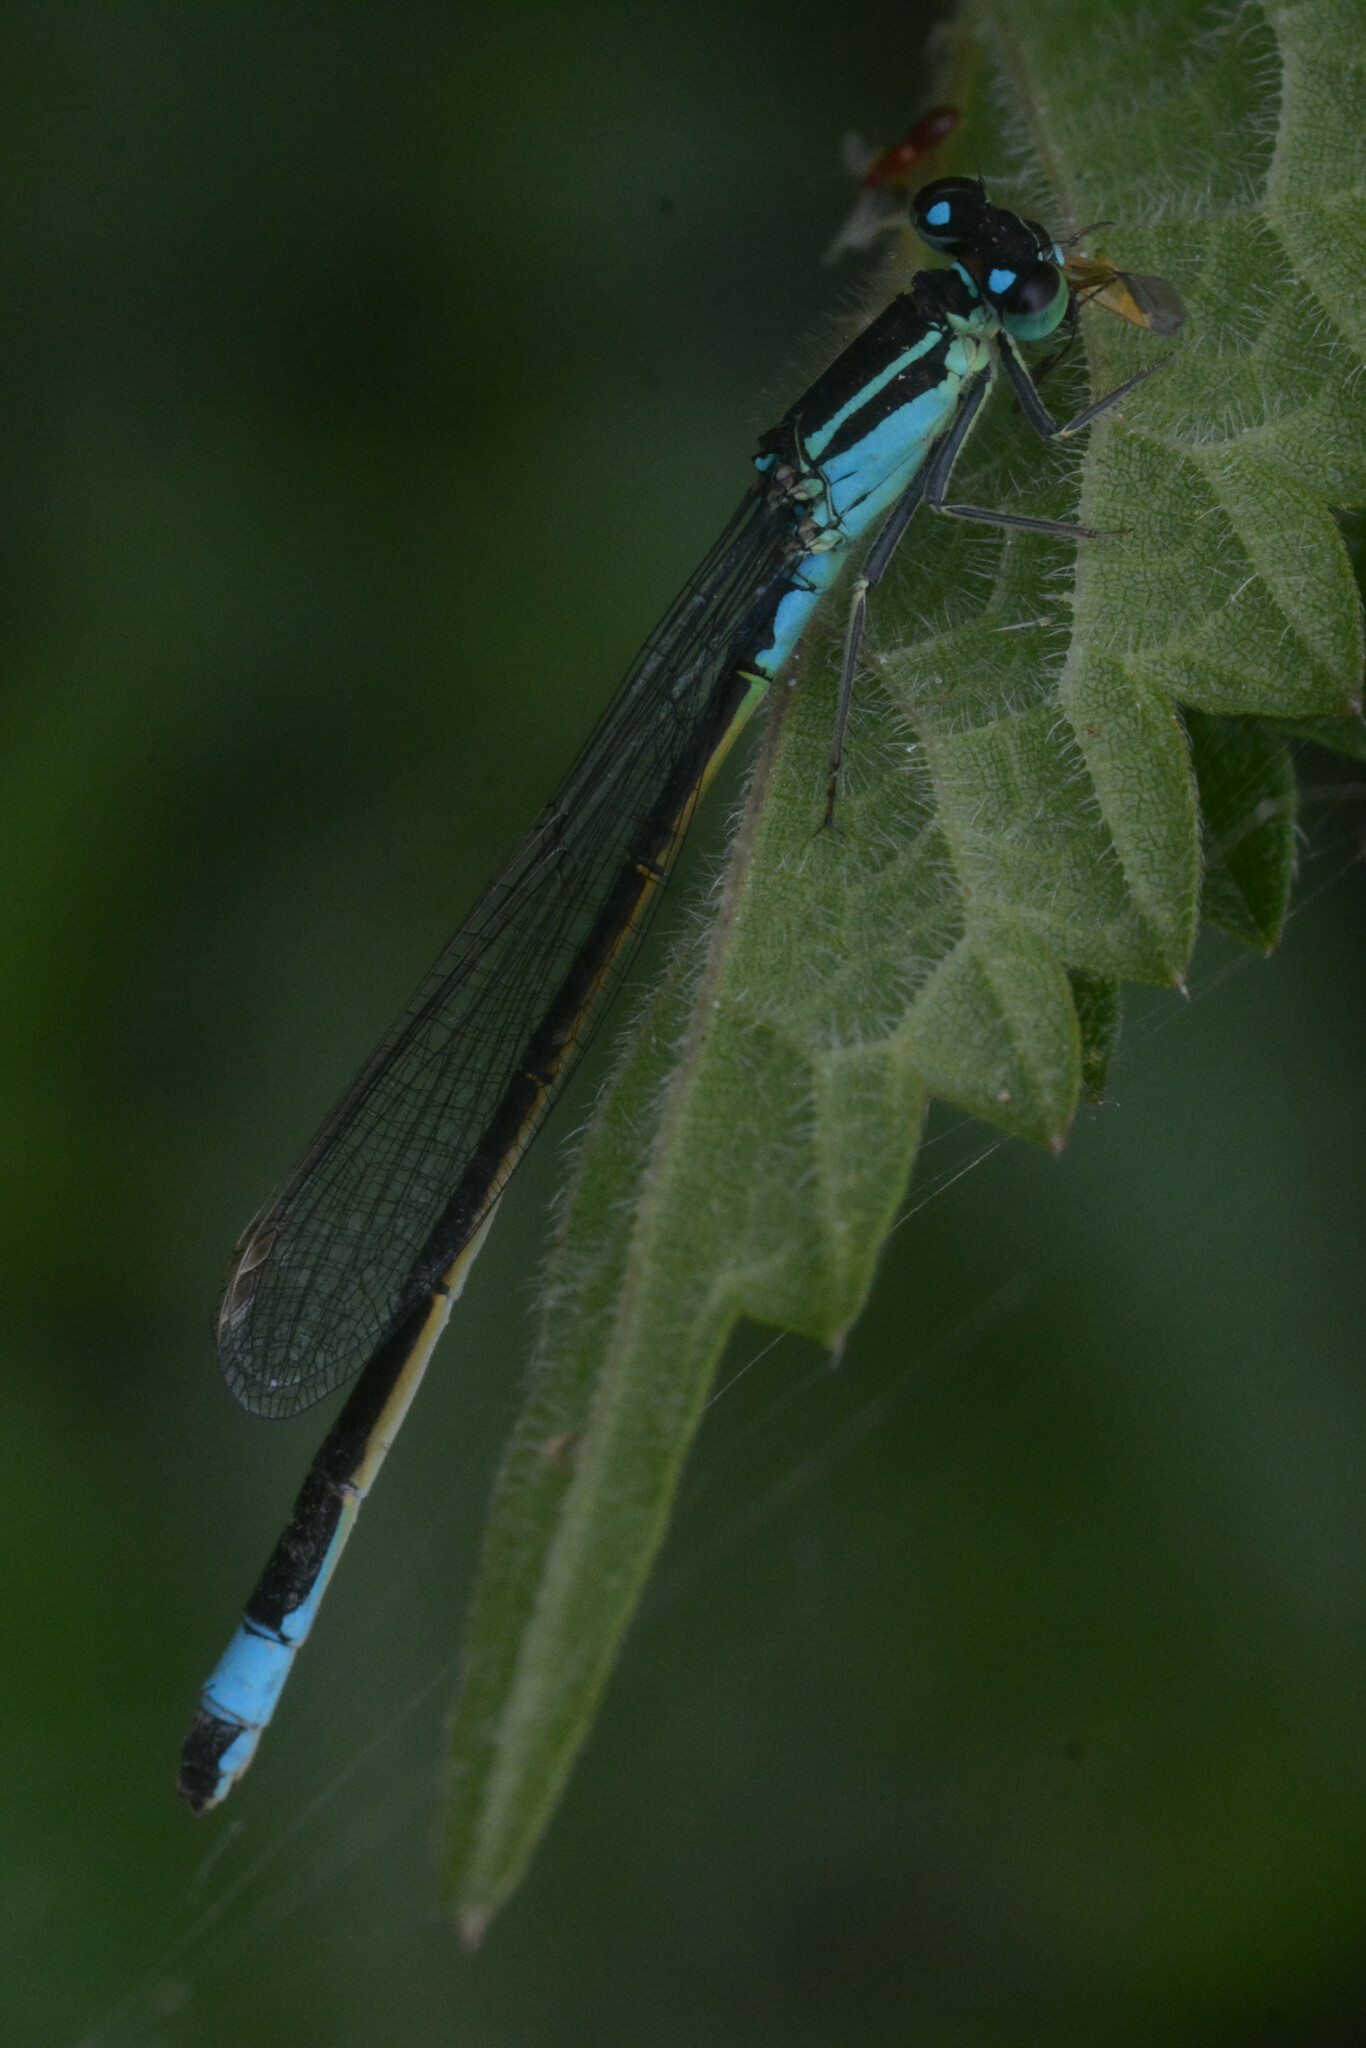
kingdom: Animalia
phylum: Arthropoda
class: Insecta
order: Odonata
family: Coenagrionidae
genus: Ischnura
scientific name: Ischnura elegans
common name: Blue-tailed damselfly
